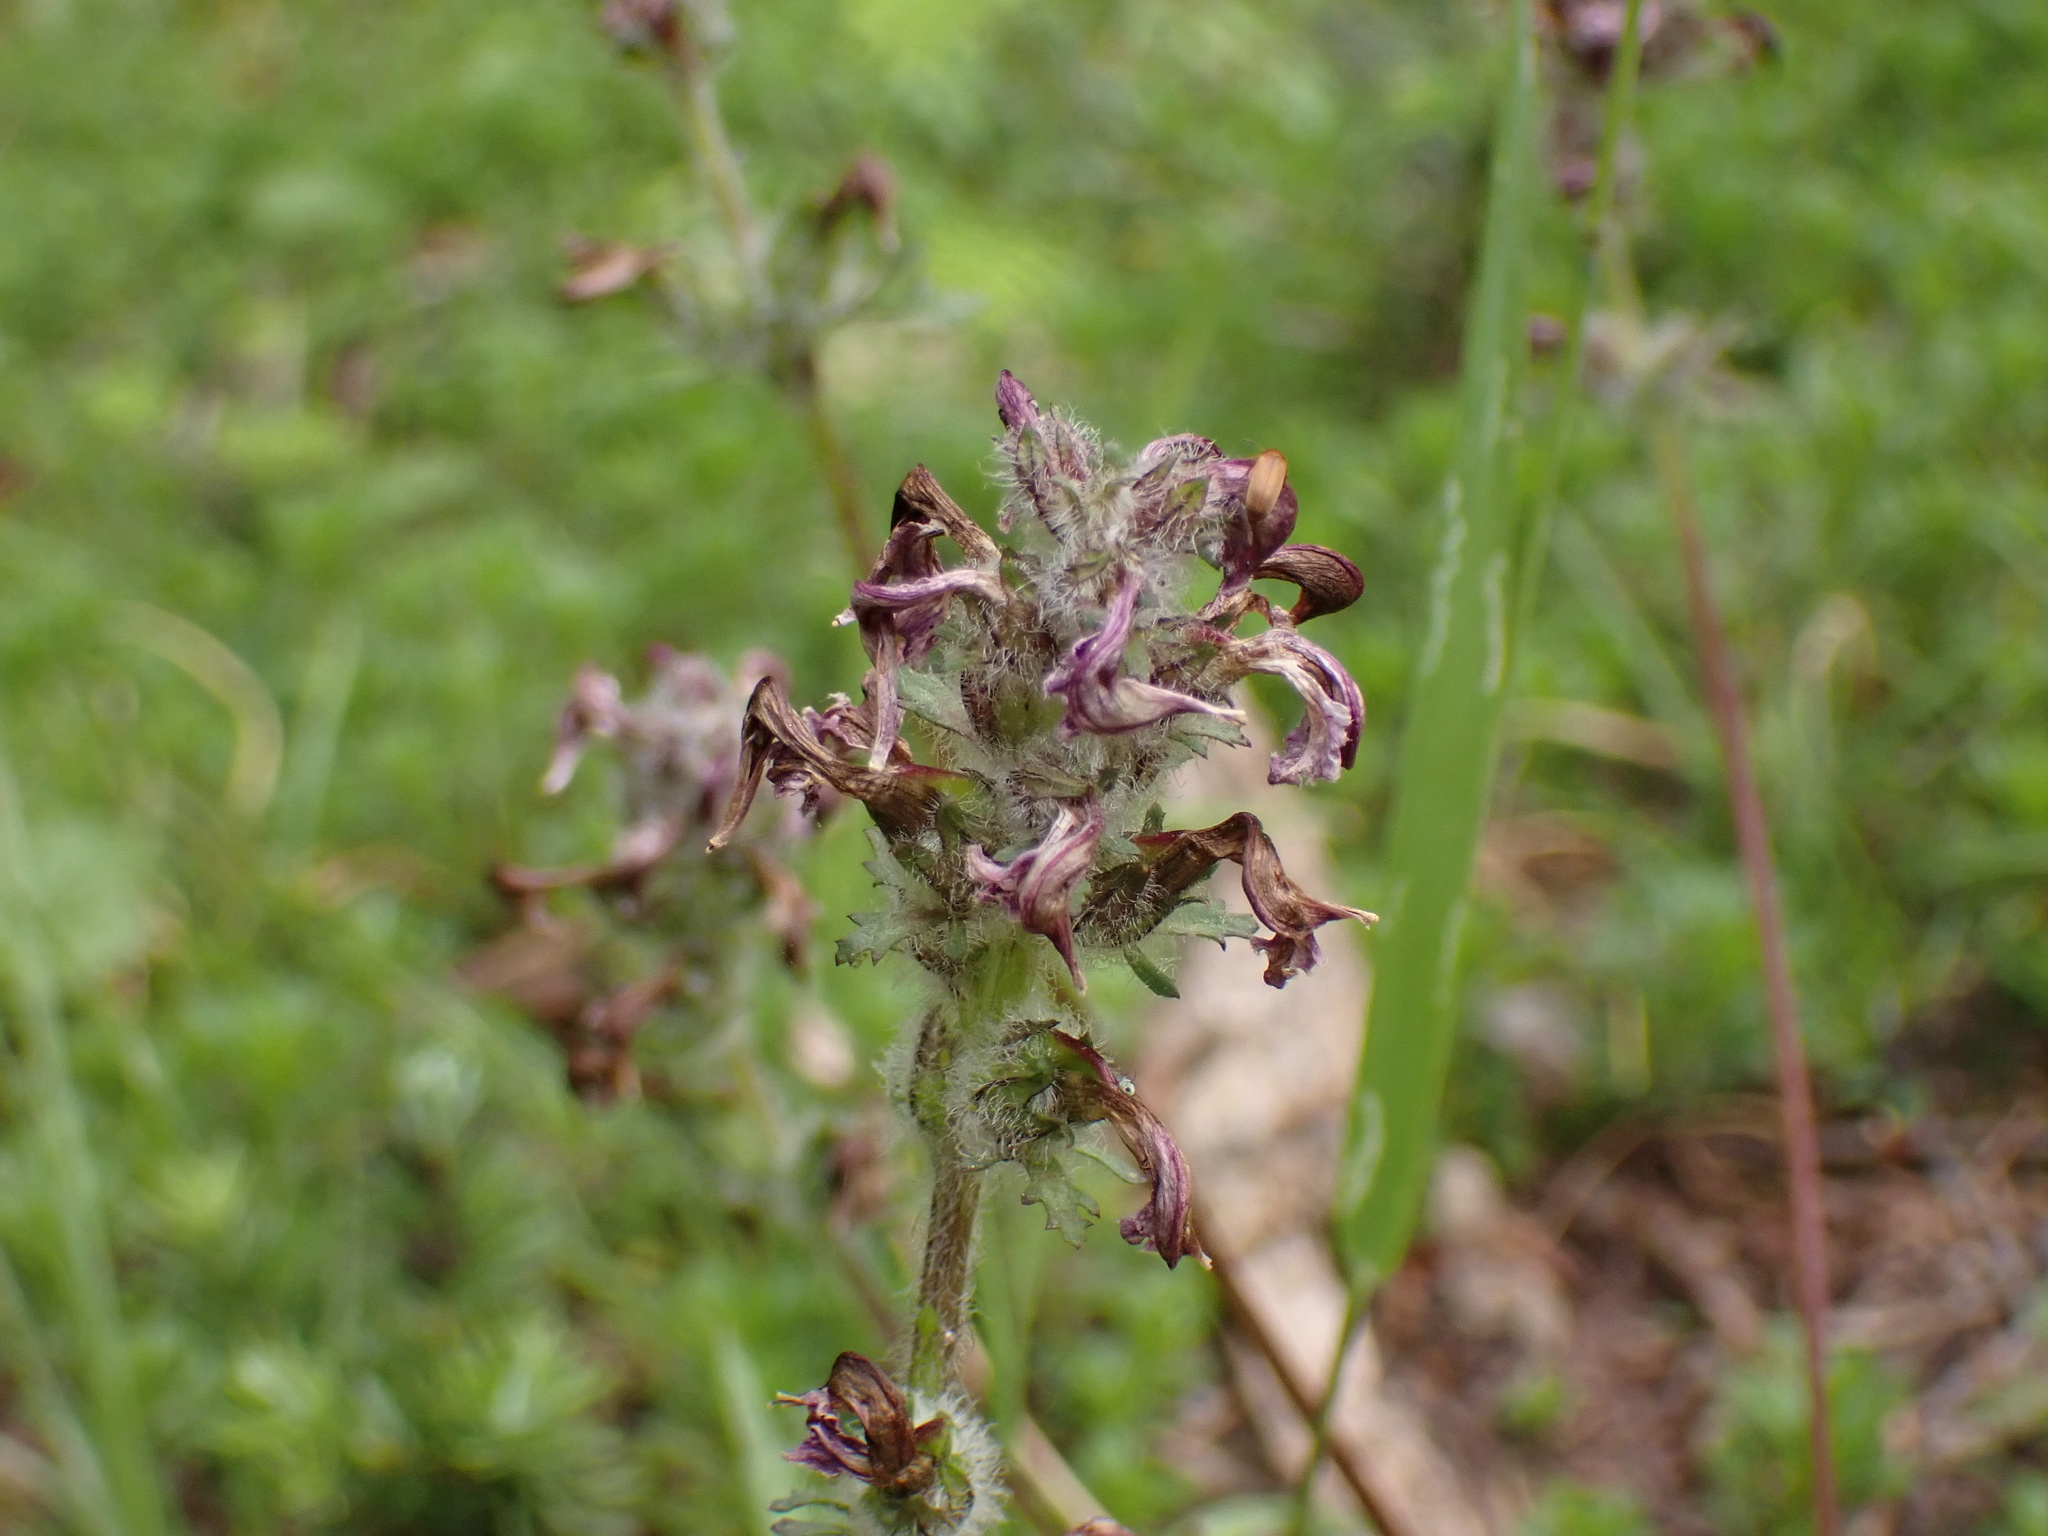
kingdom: Plantae
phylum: Tracheophyta
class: Magnoliopsida
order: Lamiales
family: Orobanchaceae
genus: Pedicularis
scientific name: Pedicularis ornithorhynchos
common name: Bird's-beak lousewort
